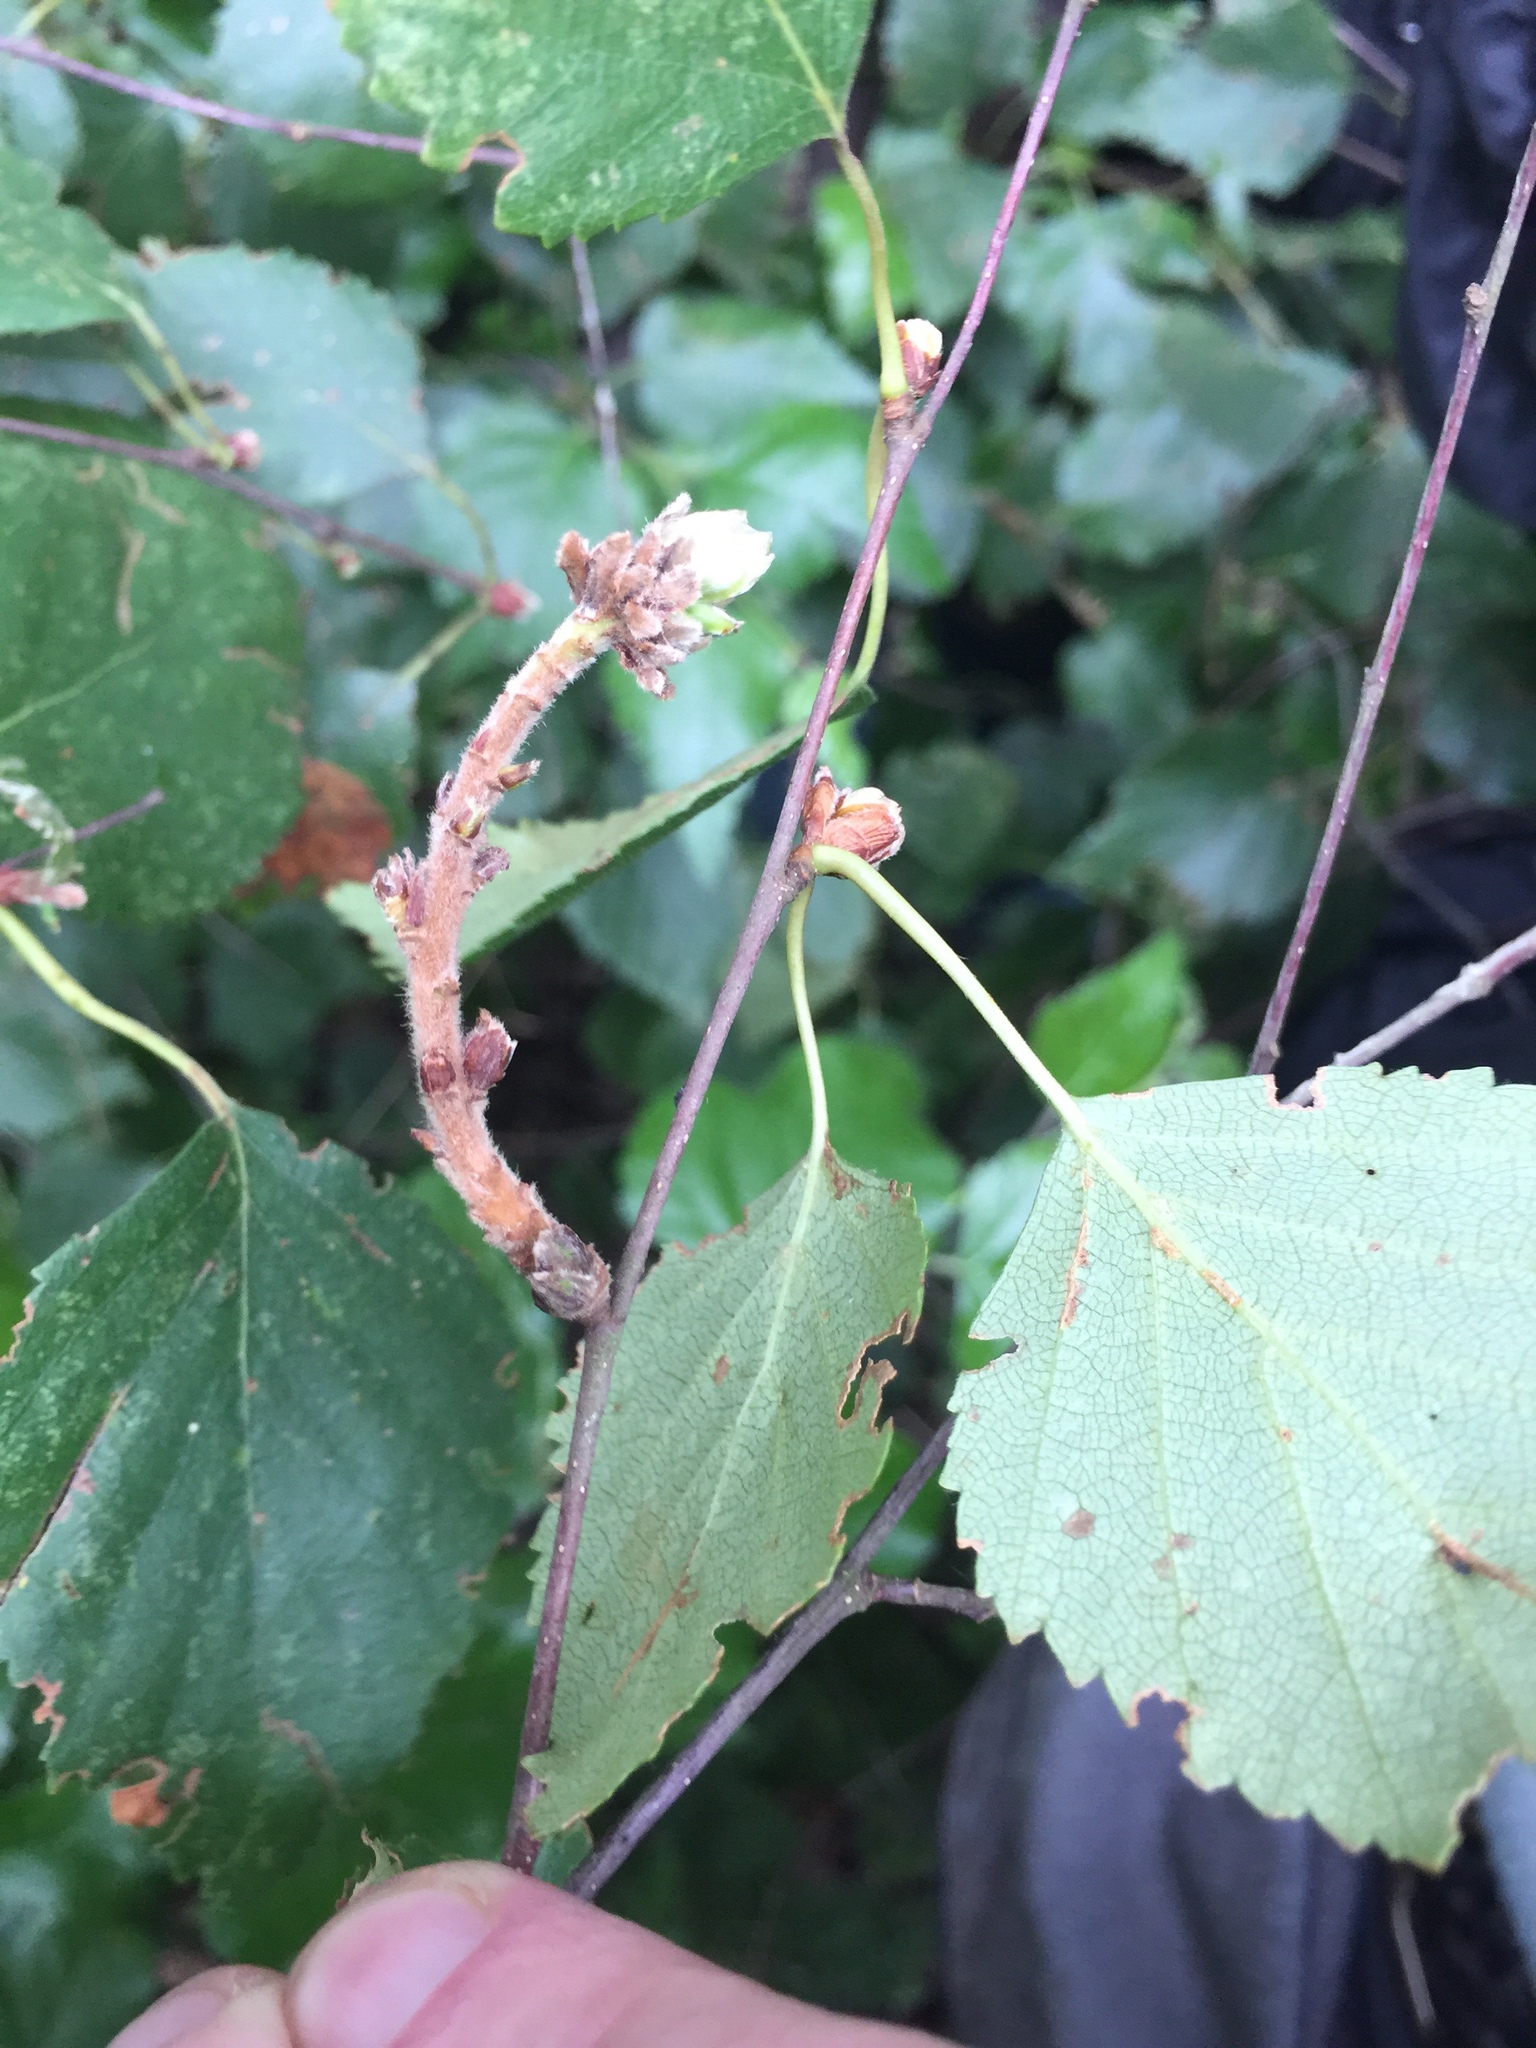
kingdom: Animalia
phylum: Arthropoda
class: Arachnida
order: Trombidiformes
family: Eriophyidae
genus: Acalitus
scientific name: Acalitus calycophthirus
